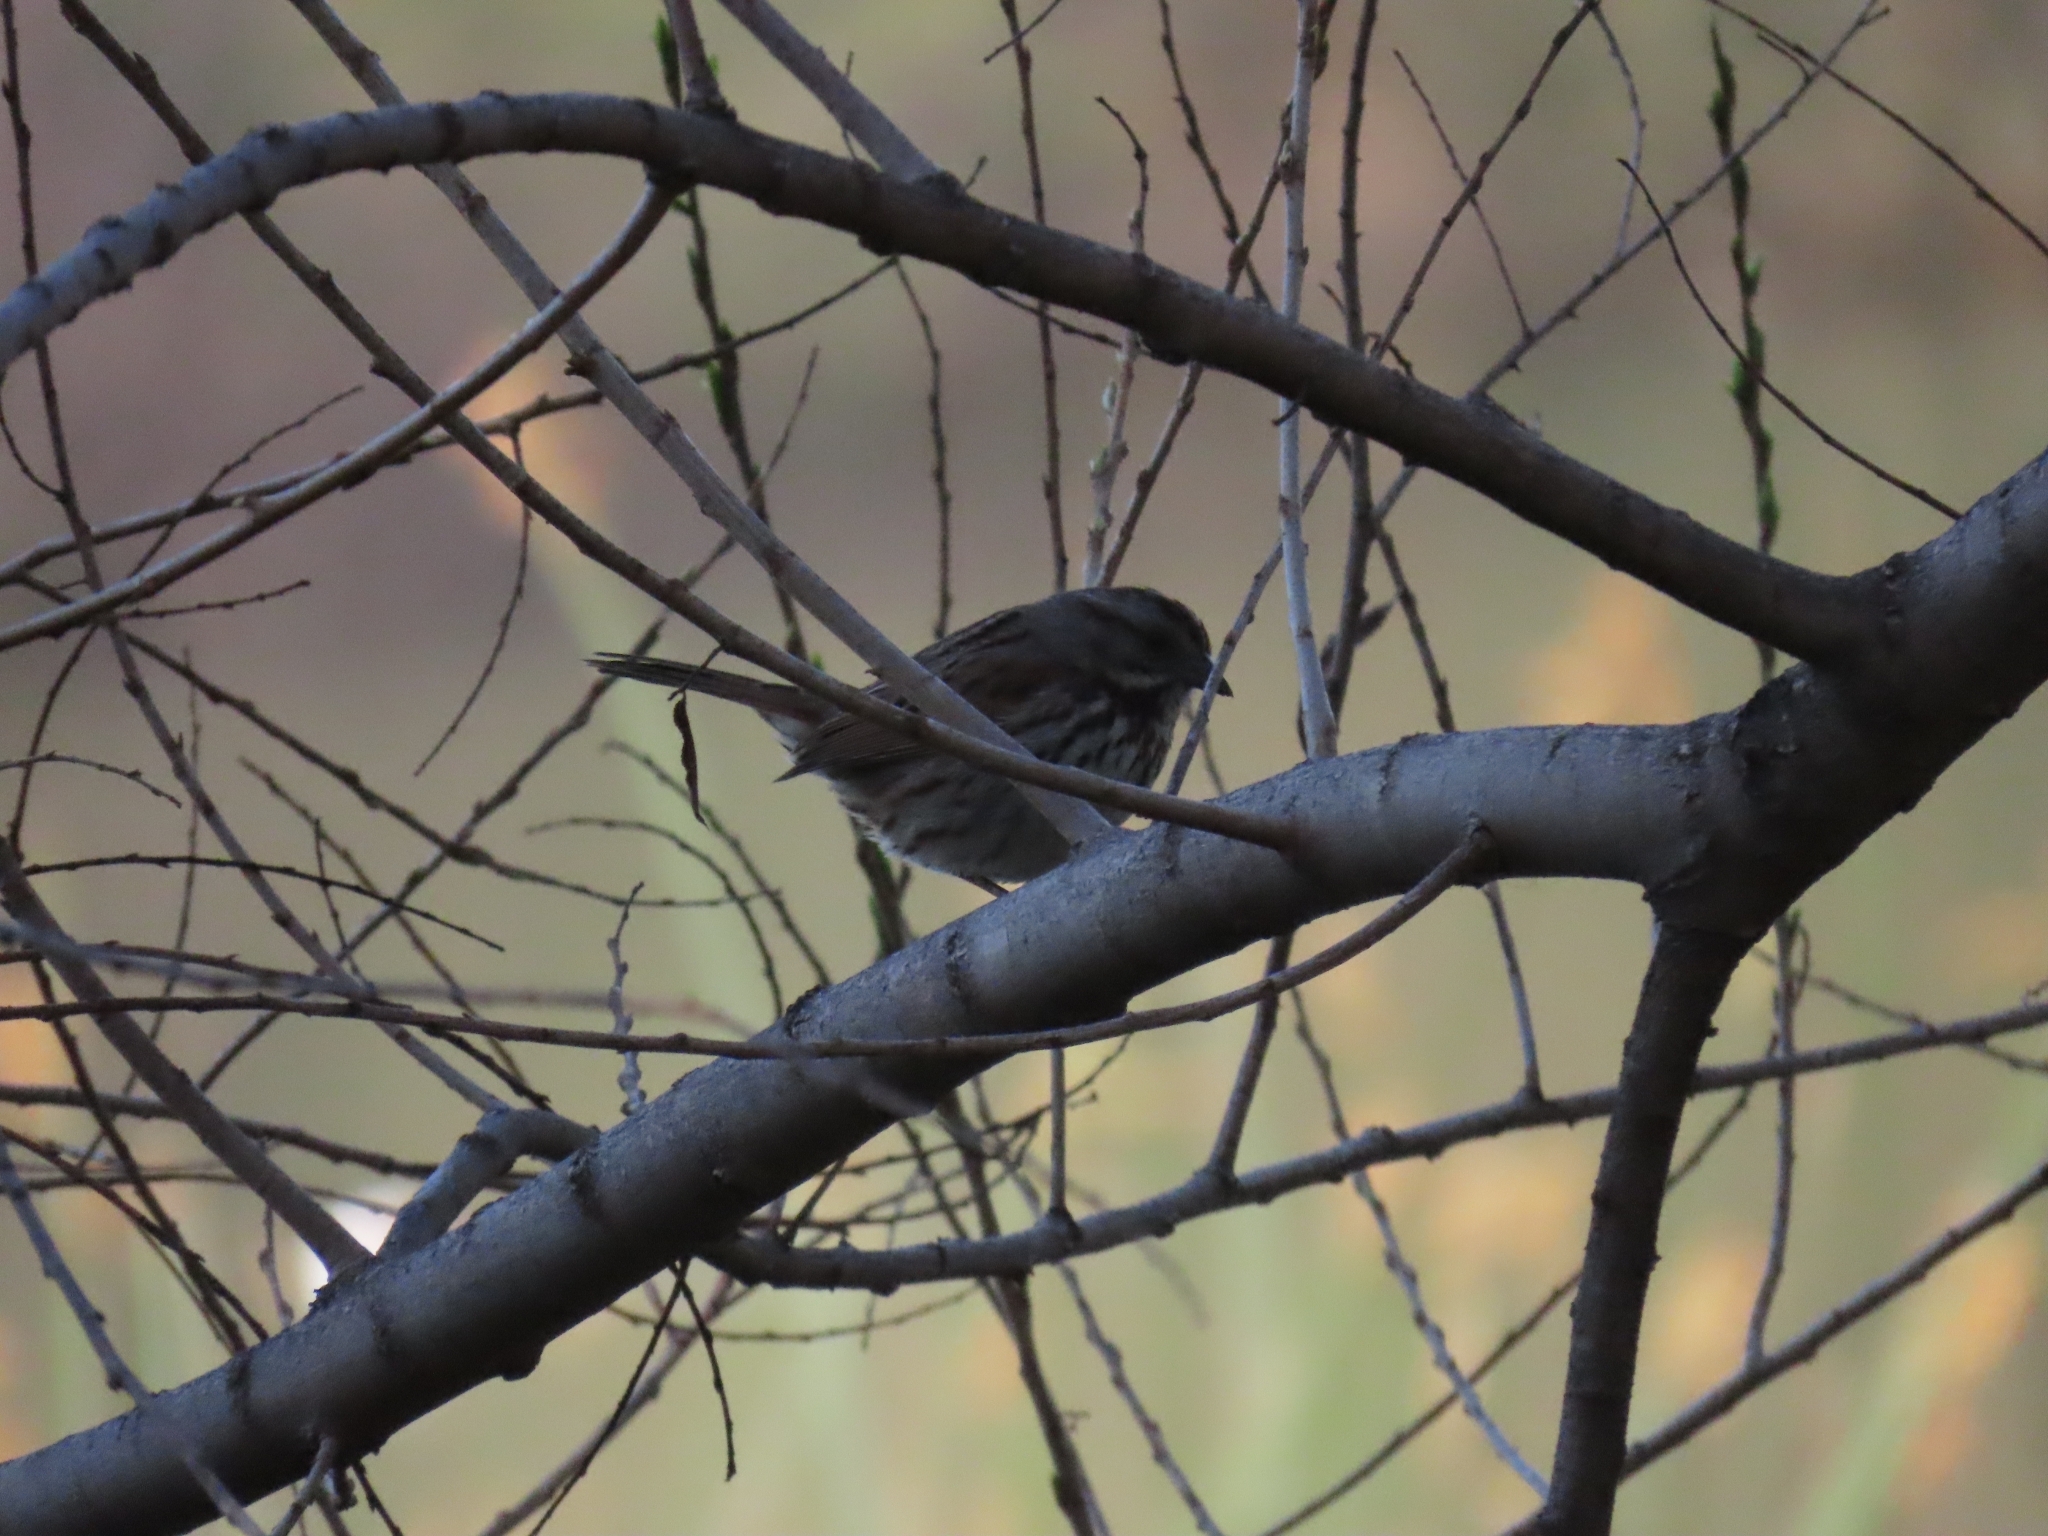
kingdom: Animalia
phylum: Chordata
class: Aves
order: Passeriformes
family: Passerellidae
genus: Melospiza
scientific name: Melospiza melodia
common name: Song sparrow
